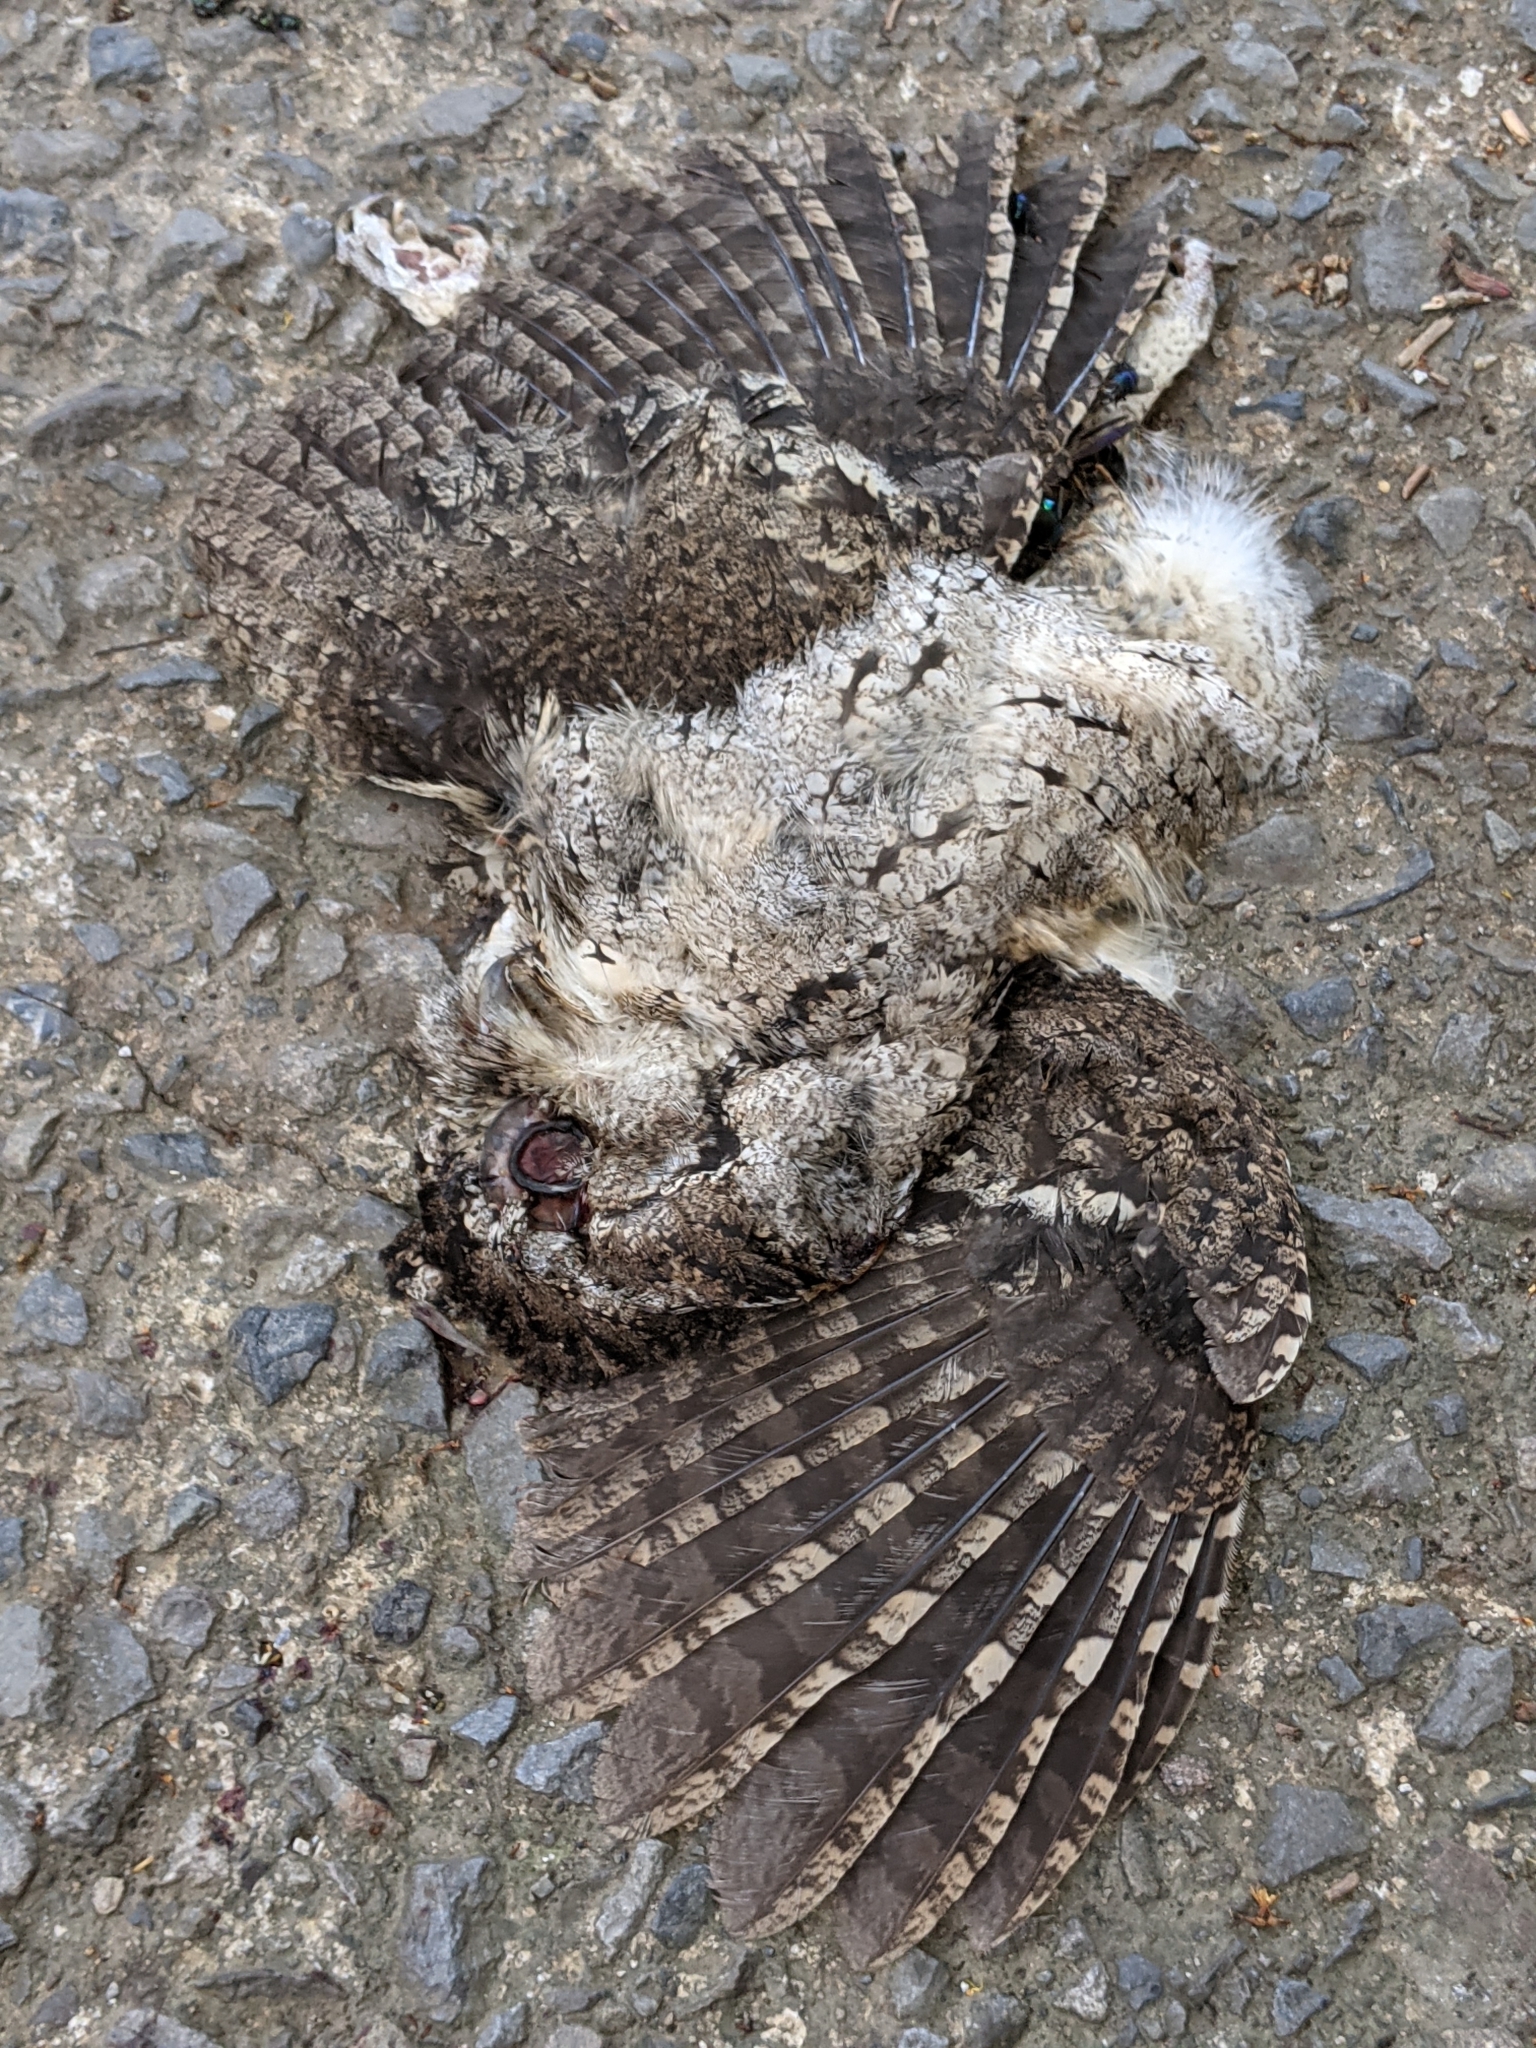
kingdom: Animalia
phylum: Chordata
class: Aves
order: Strigiformes
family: Strigidae
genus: Otus
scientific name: Otus lettia
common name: Collared scops owl
